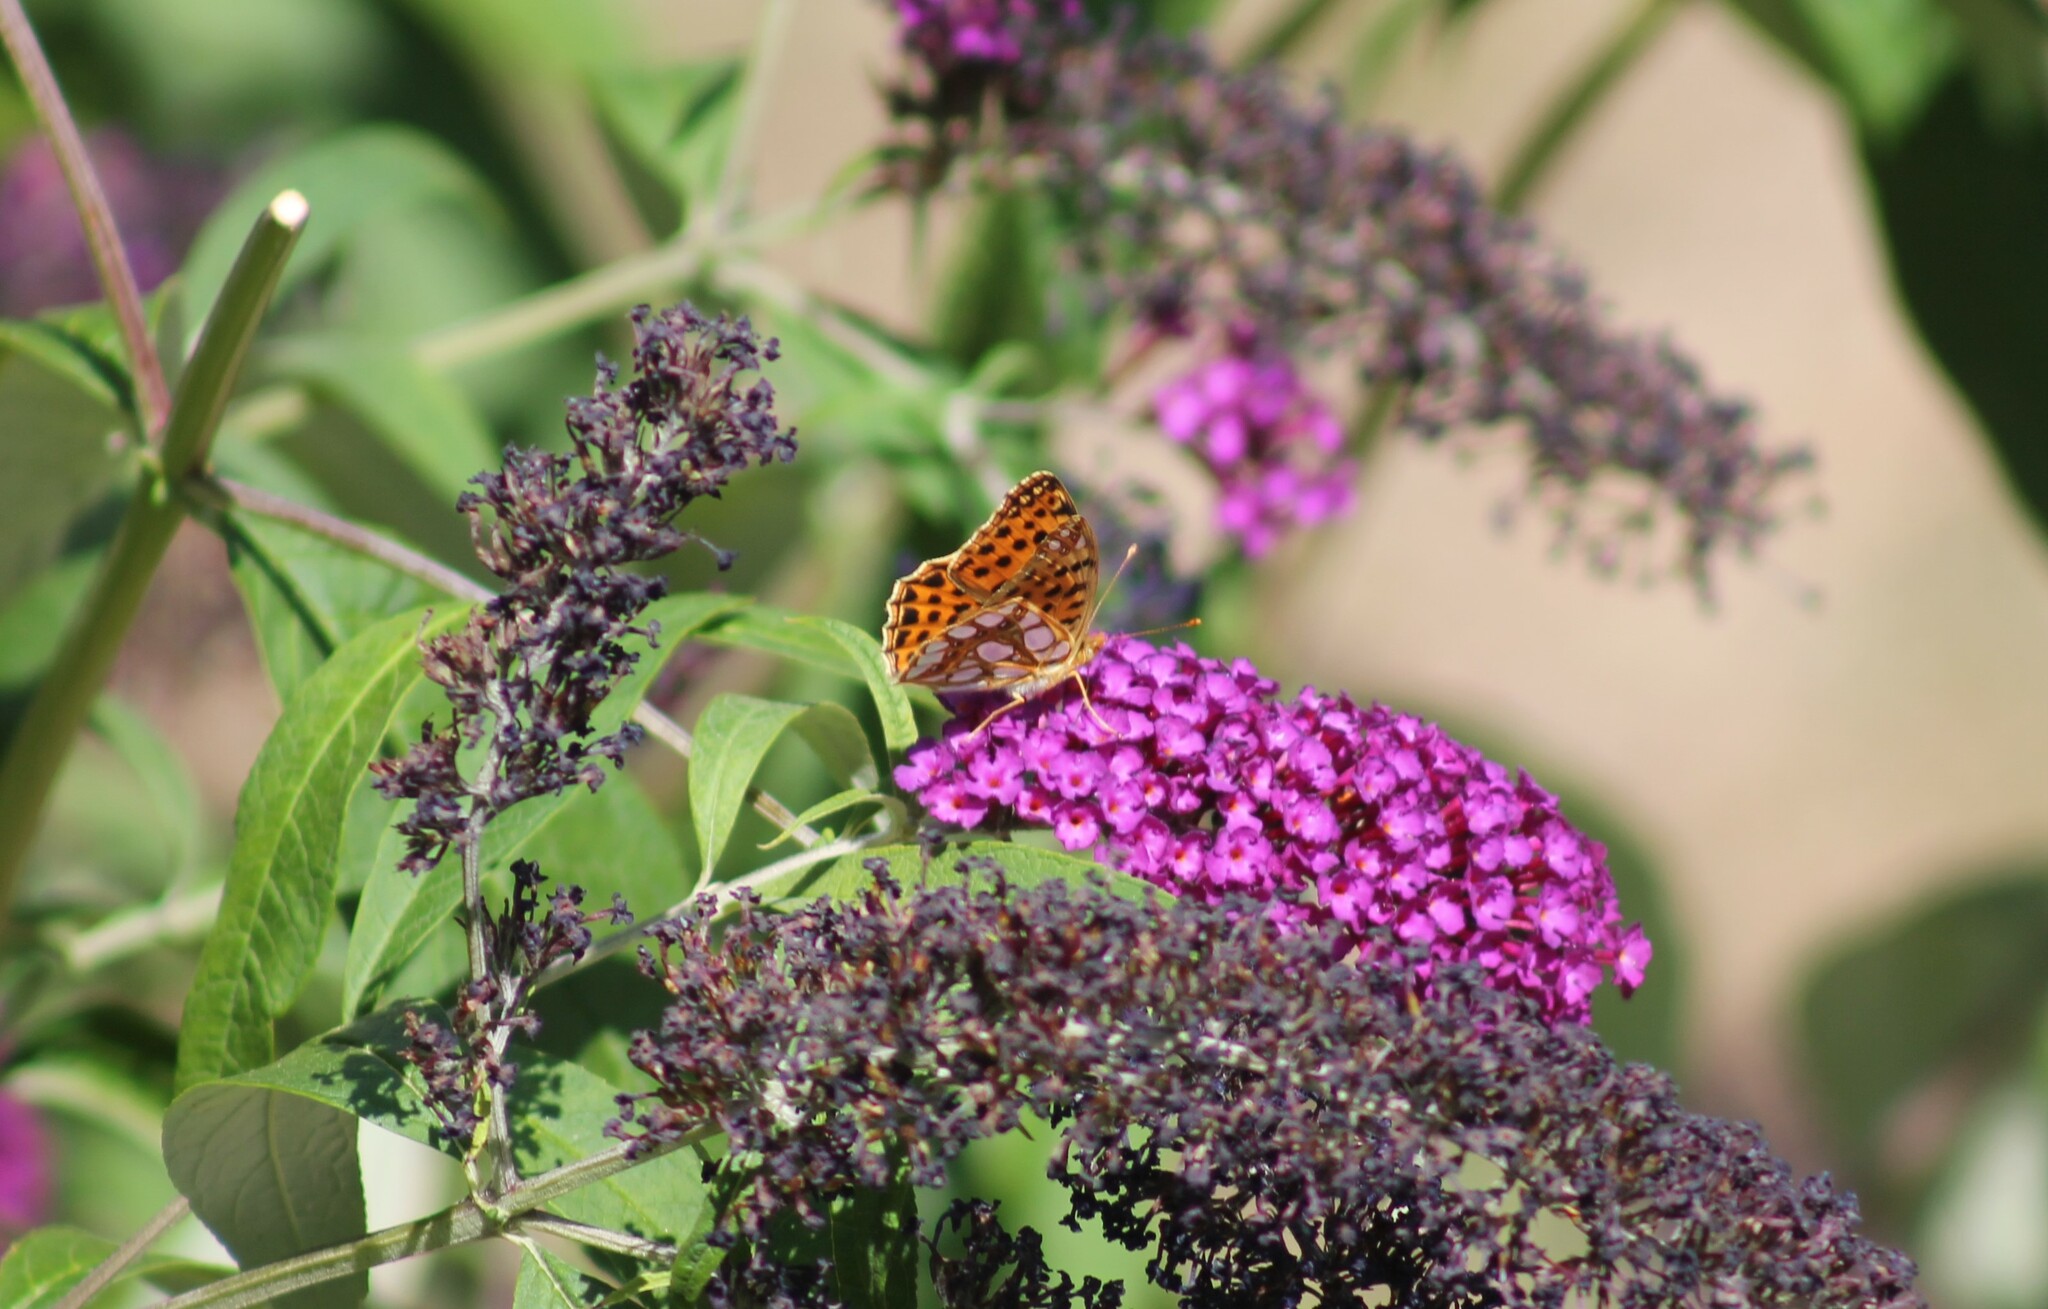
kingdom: Animalia
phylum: Arthropoda
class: Insecta
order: Lepidoptera
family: Nymphalidae
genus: Issoria
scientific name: Issoria lathonia
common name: Queen of spain fritillary
